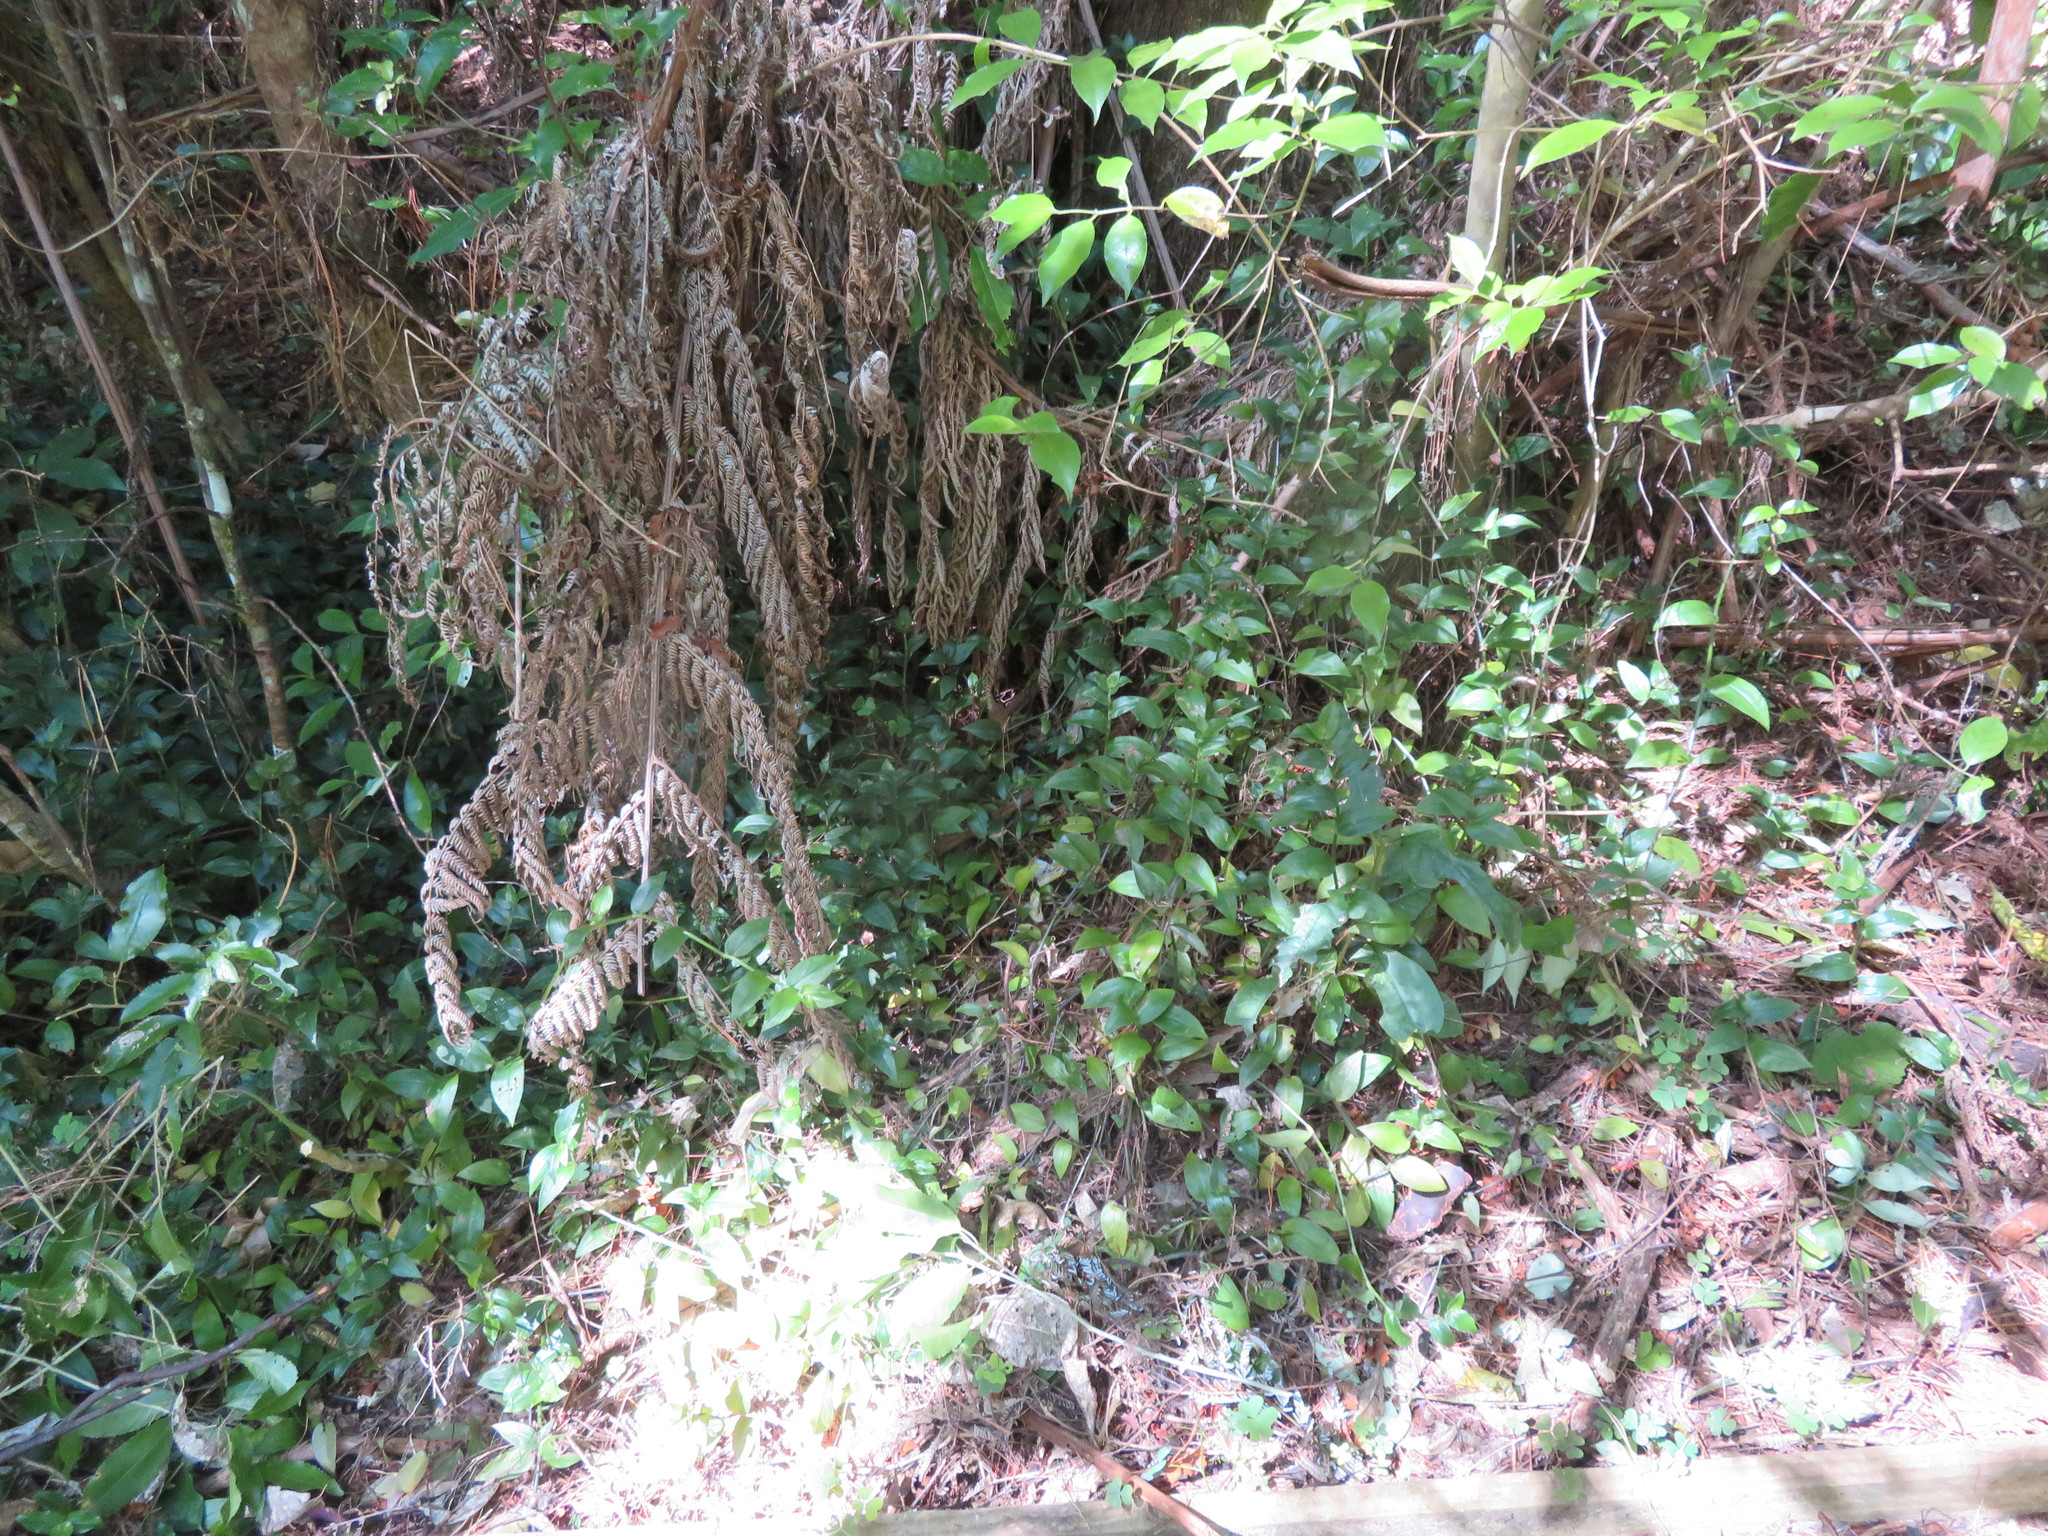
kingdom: Plantae
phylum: Tracheophyta
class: Magnoliopsida
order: Gentianales
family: Loganiaceae
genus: Geniostoma
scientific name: Geniostoma ligustrifolium
